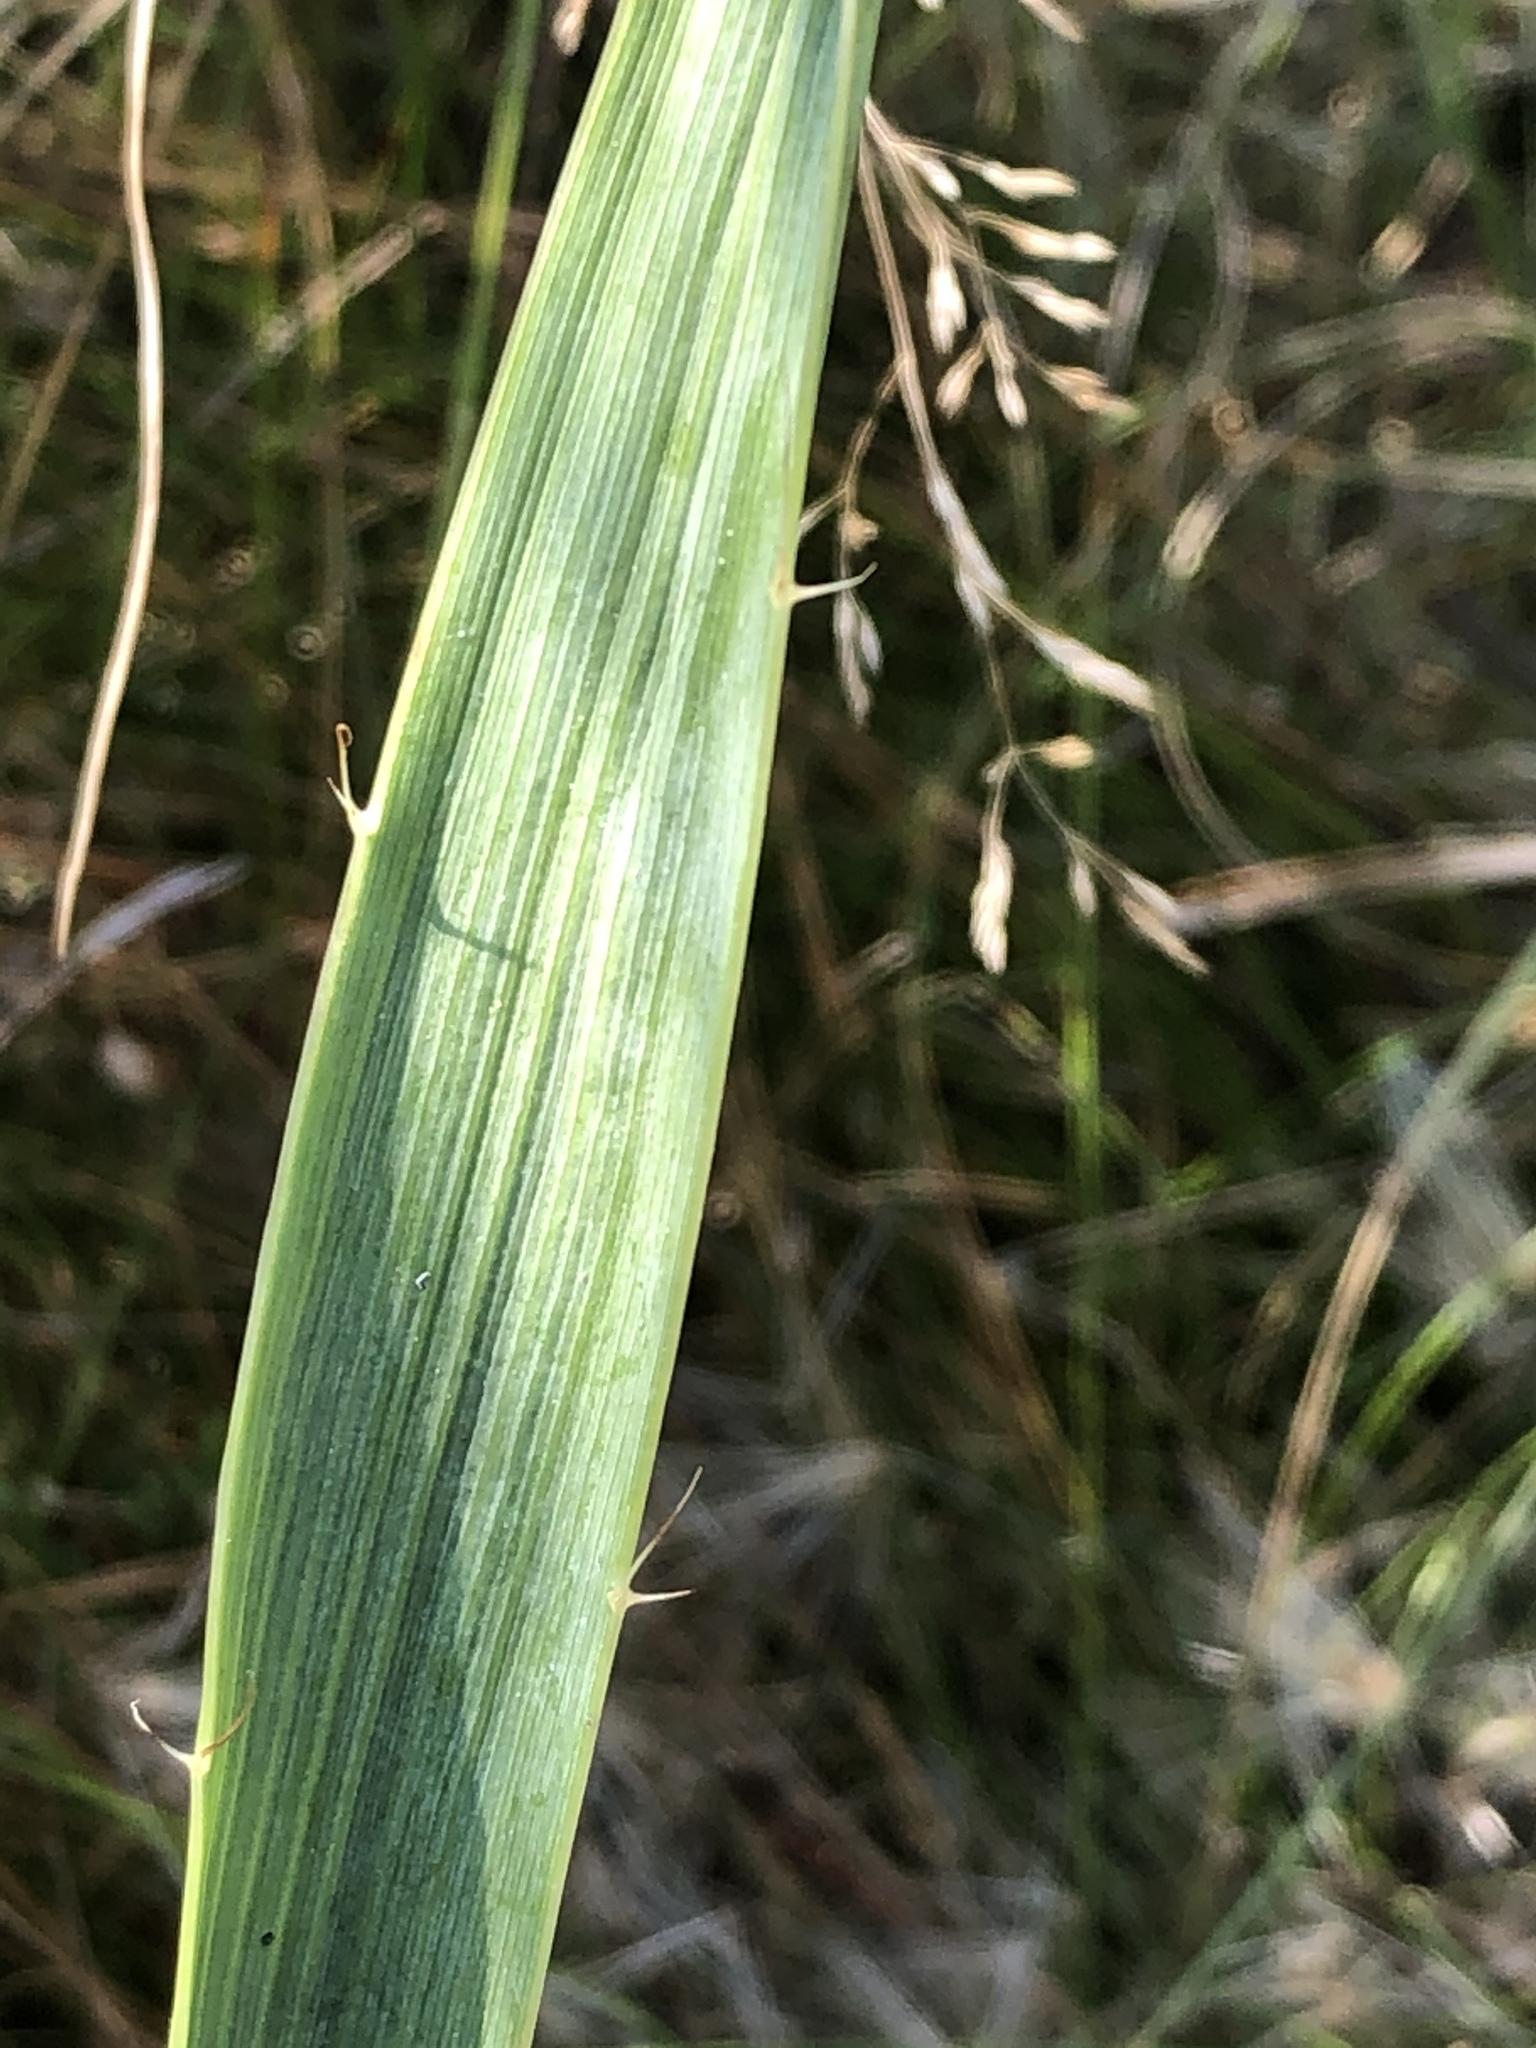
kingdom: Plantae
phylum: Tracheophyta
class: Magnoliopsida
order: Apiales
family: Apiaceae
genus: Eryngium
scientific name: Eryngium yuccifolium
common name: Button eryngo
